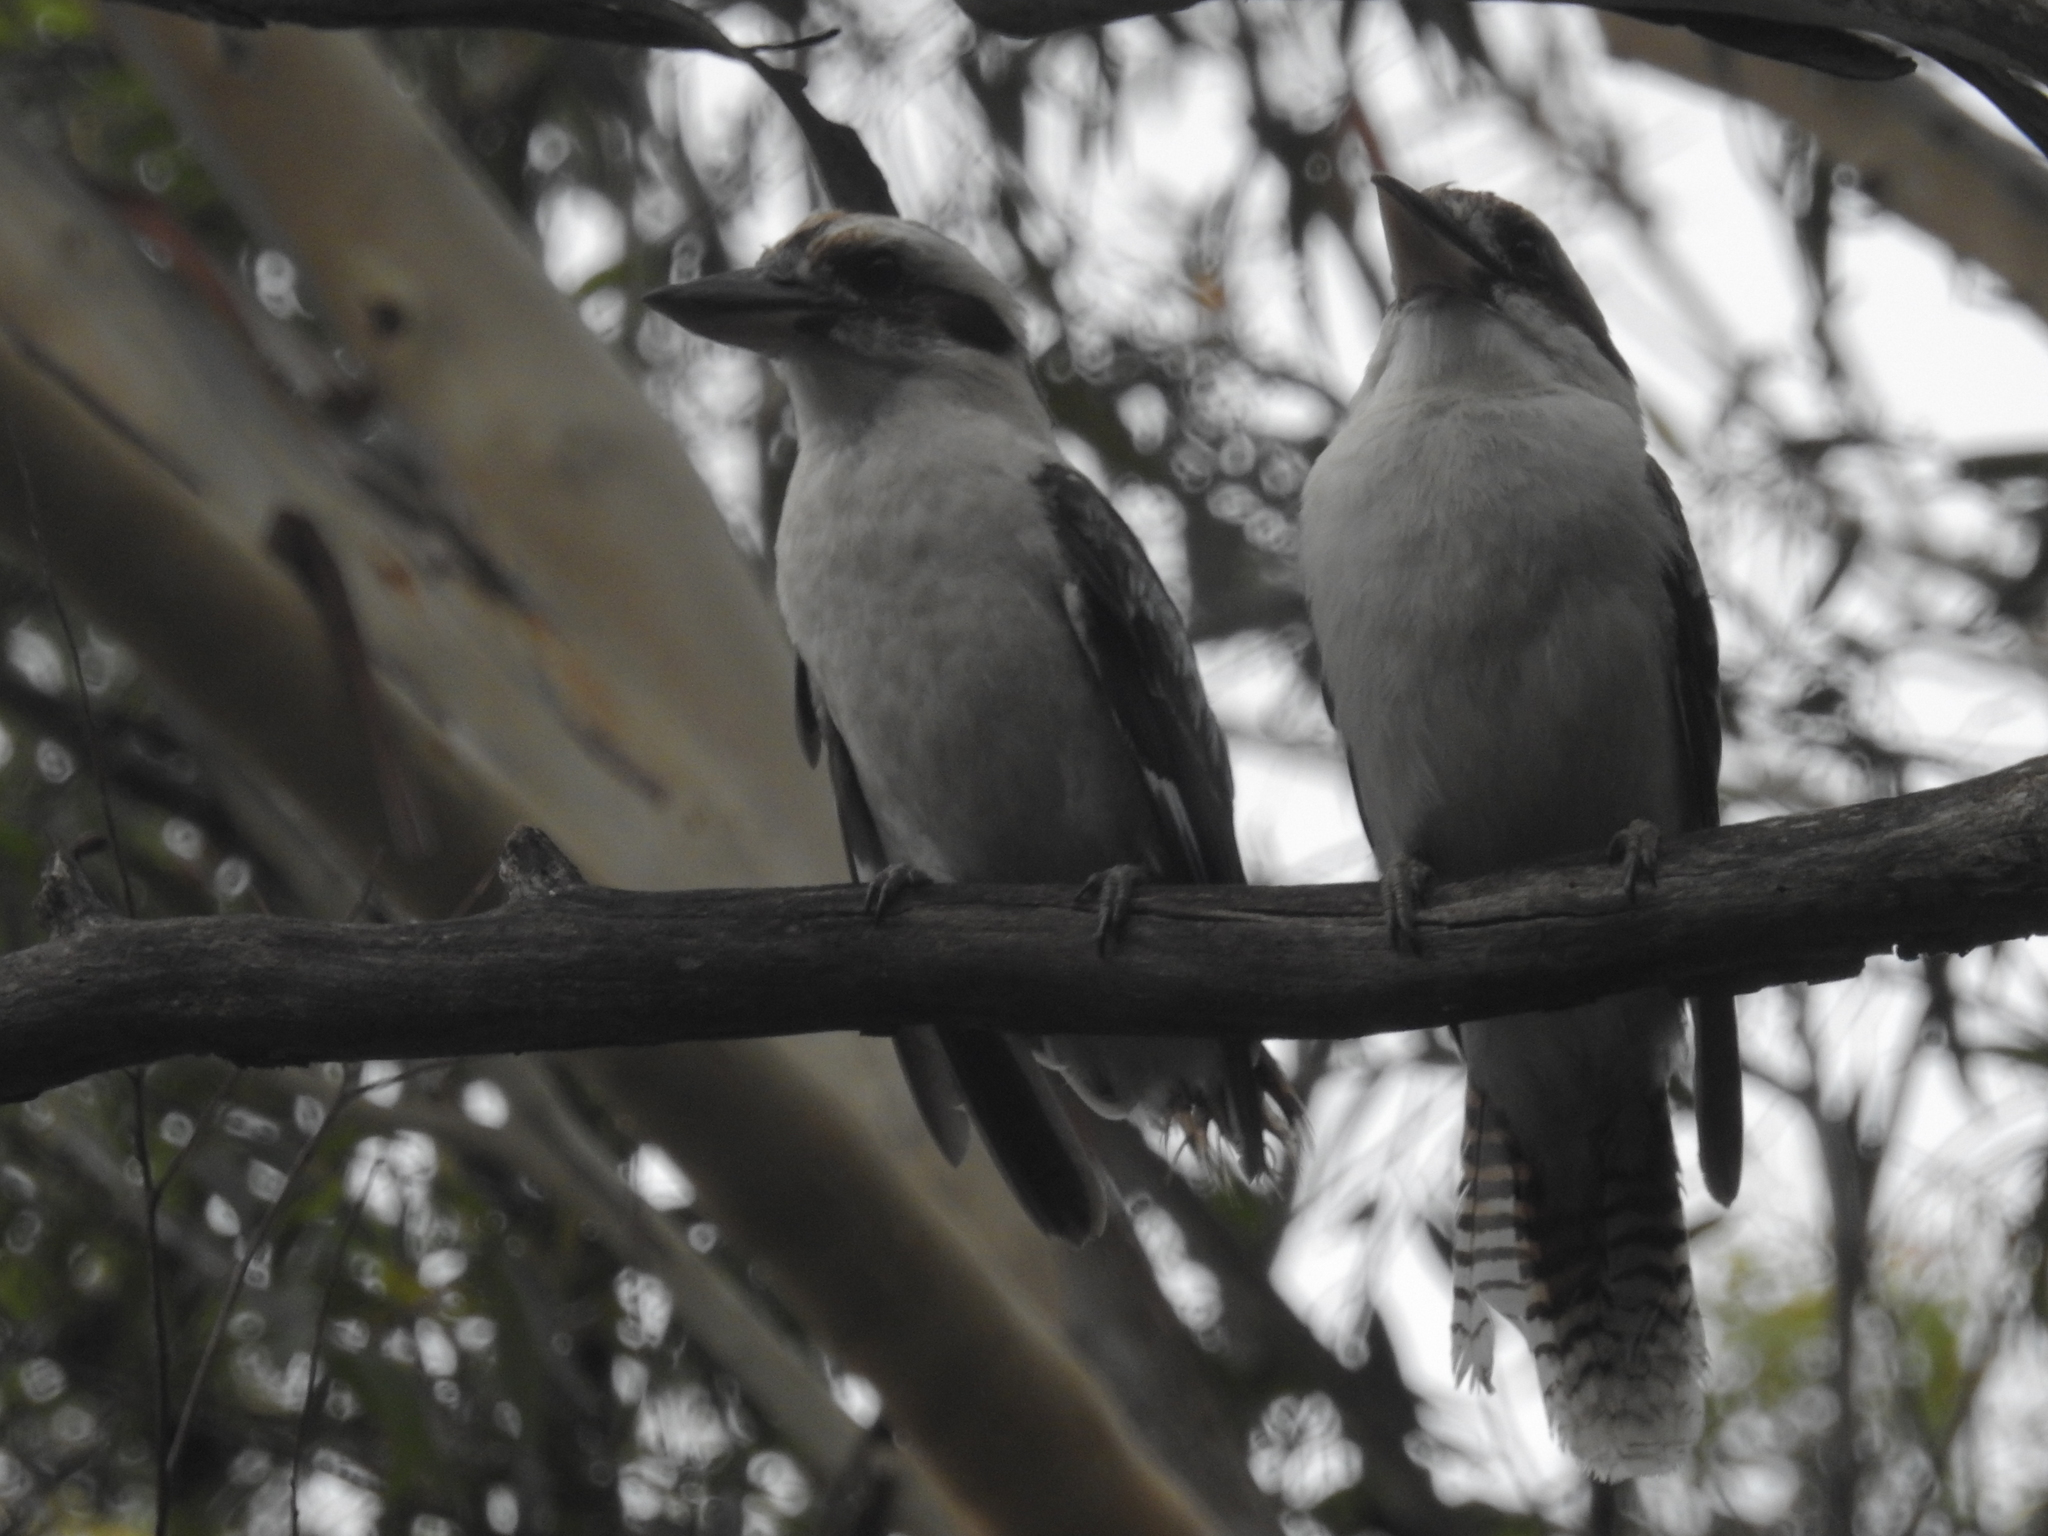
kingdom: Animalia
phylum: Chordata
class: Aves
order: Coraciiformes
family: Alcedinidae
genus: Dacelo
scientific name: Dacelo novaeguineae
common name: Laughing kookaburra
